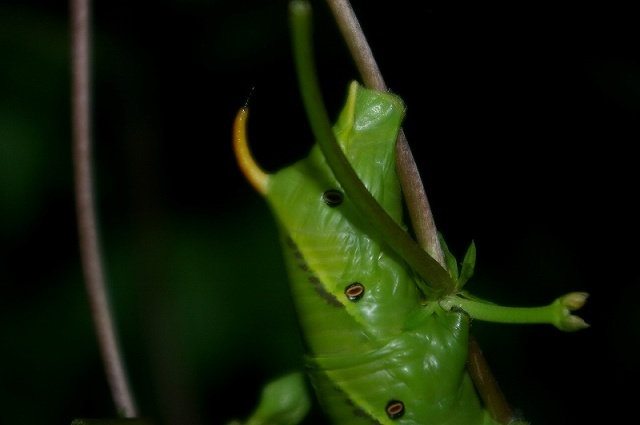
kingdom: Animalia
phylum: Arthropoda
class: Insecta
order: Lepidoptera
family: Sphingidae
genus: Agrius
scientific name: Agrius convolvuli
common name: Convolvulus hawkmoth
